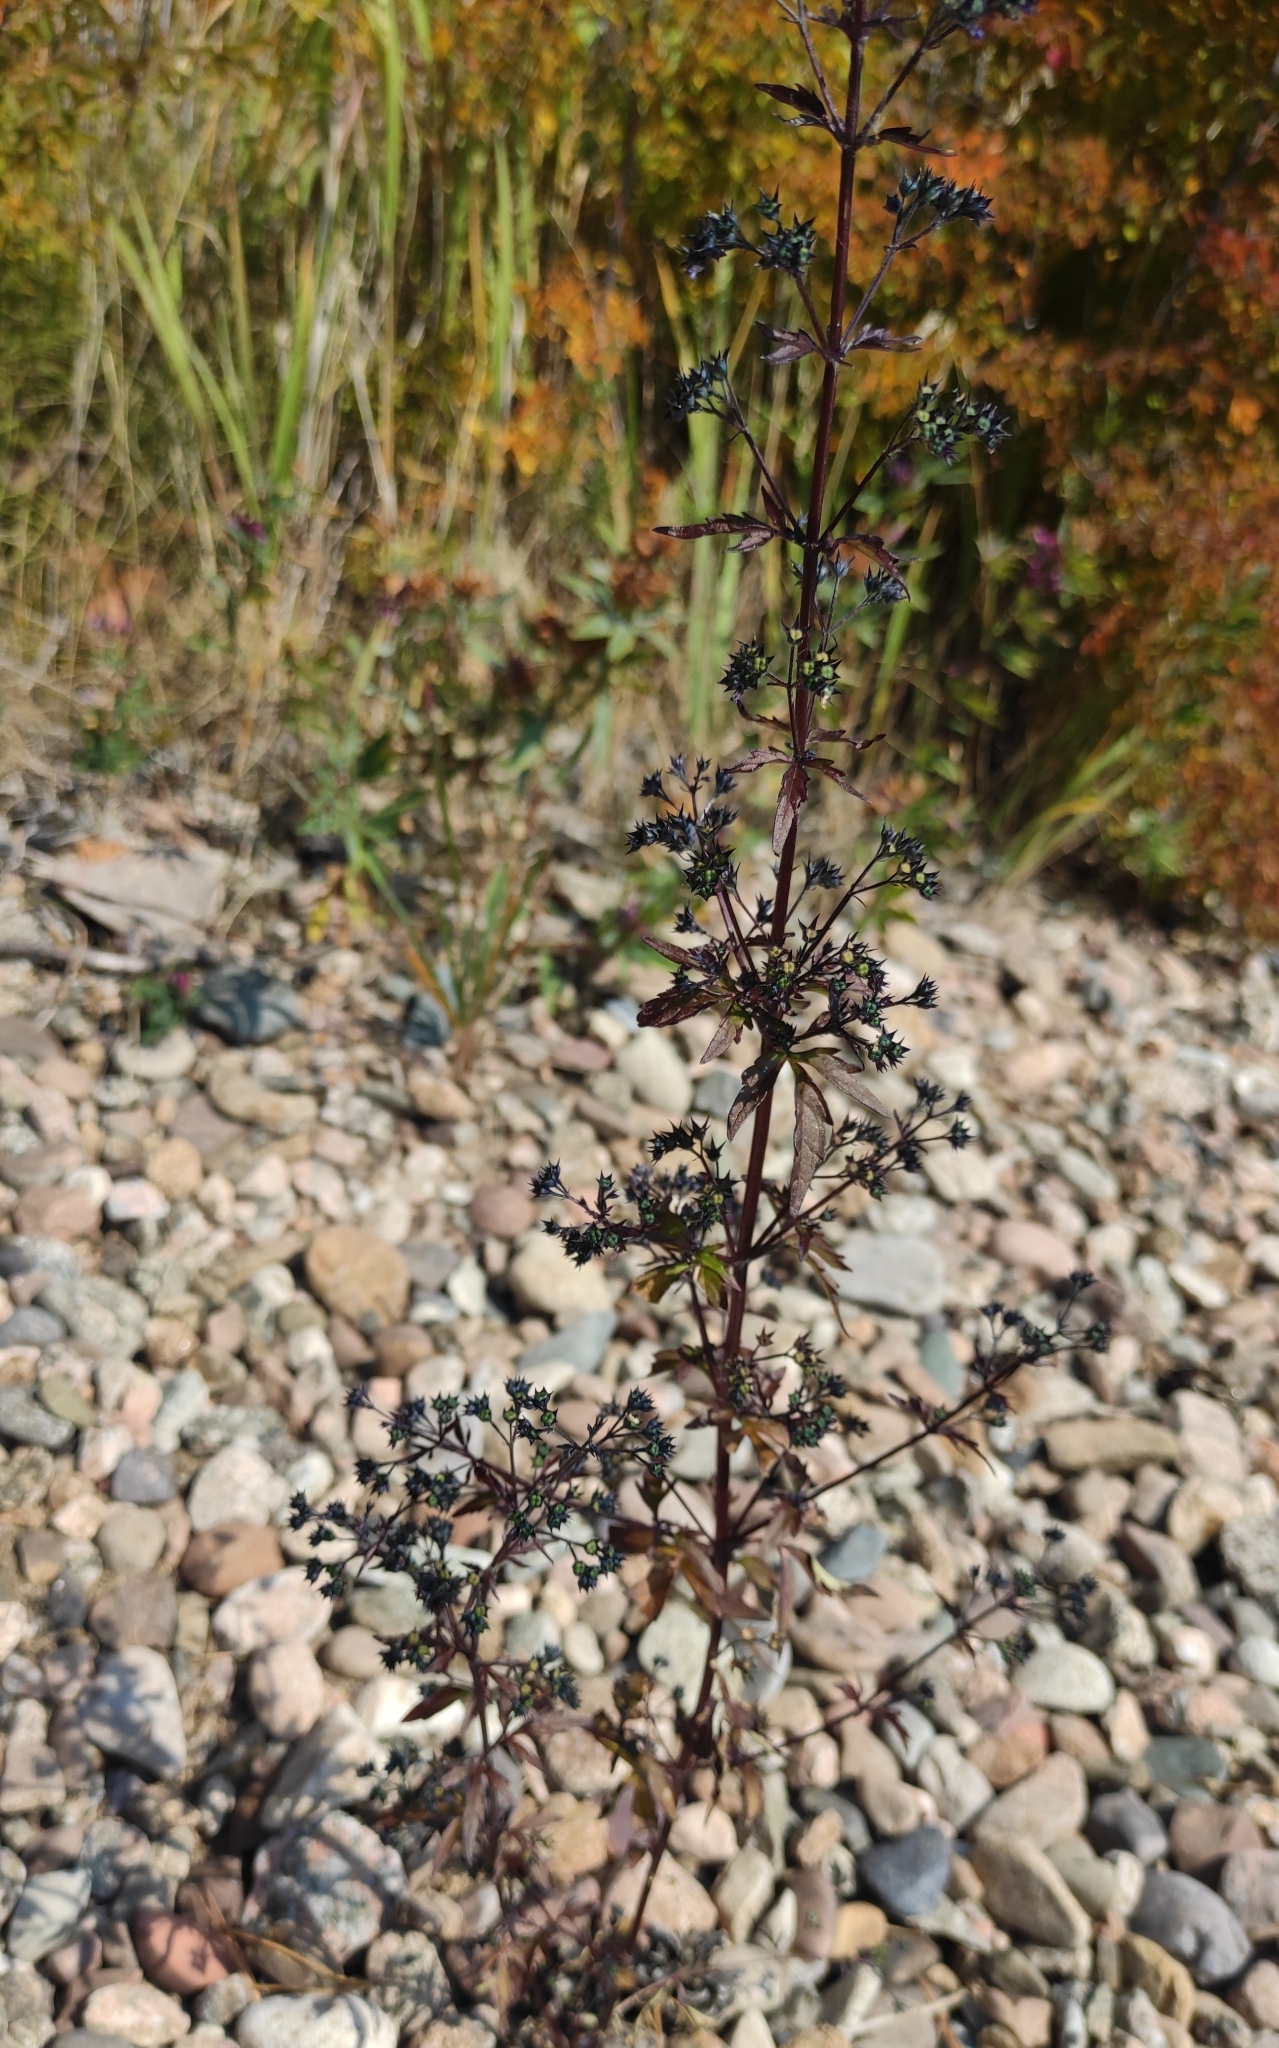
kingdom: Plantae
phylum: Tracheophyta
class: Magnoliopsida
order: Lamiales
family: Lamiaceae
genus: Amethystea
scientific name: Amethystea caerulea
